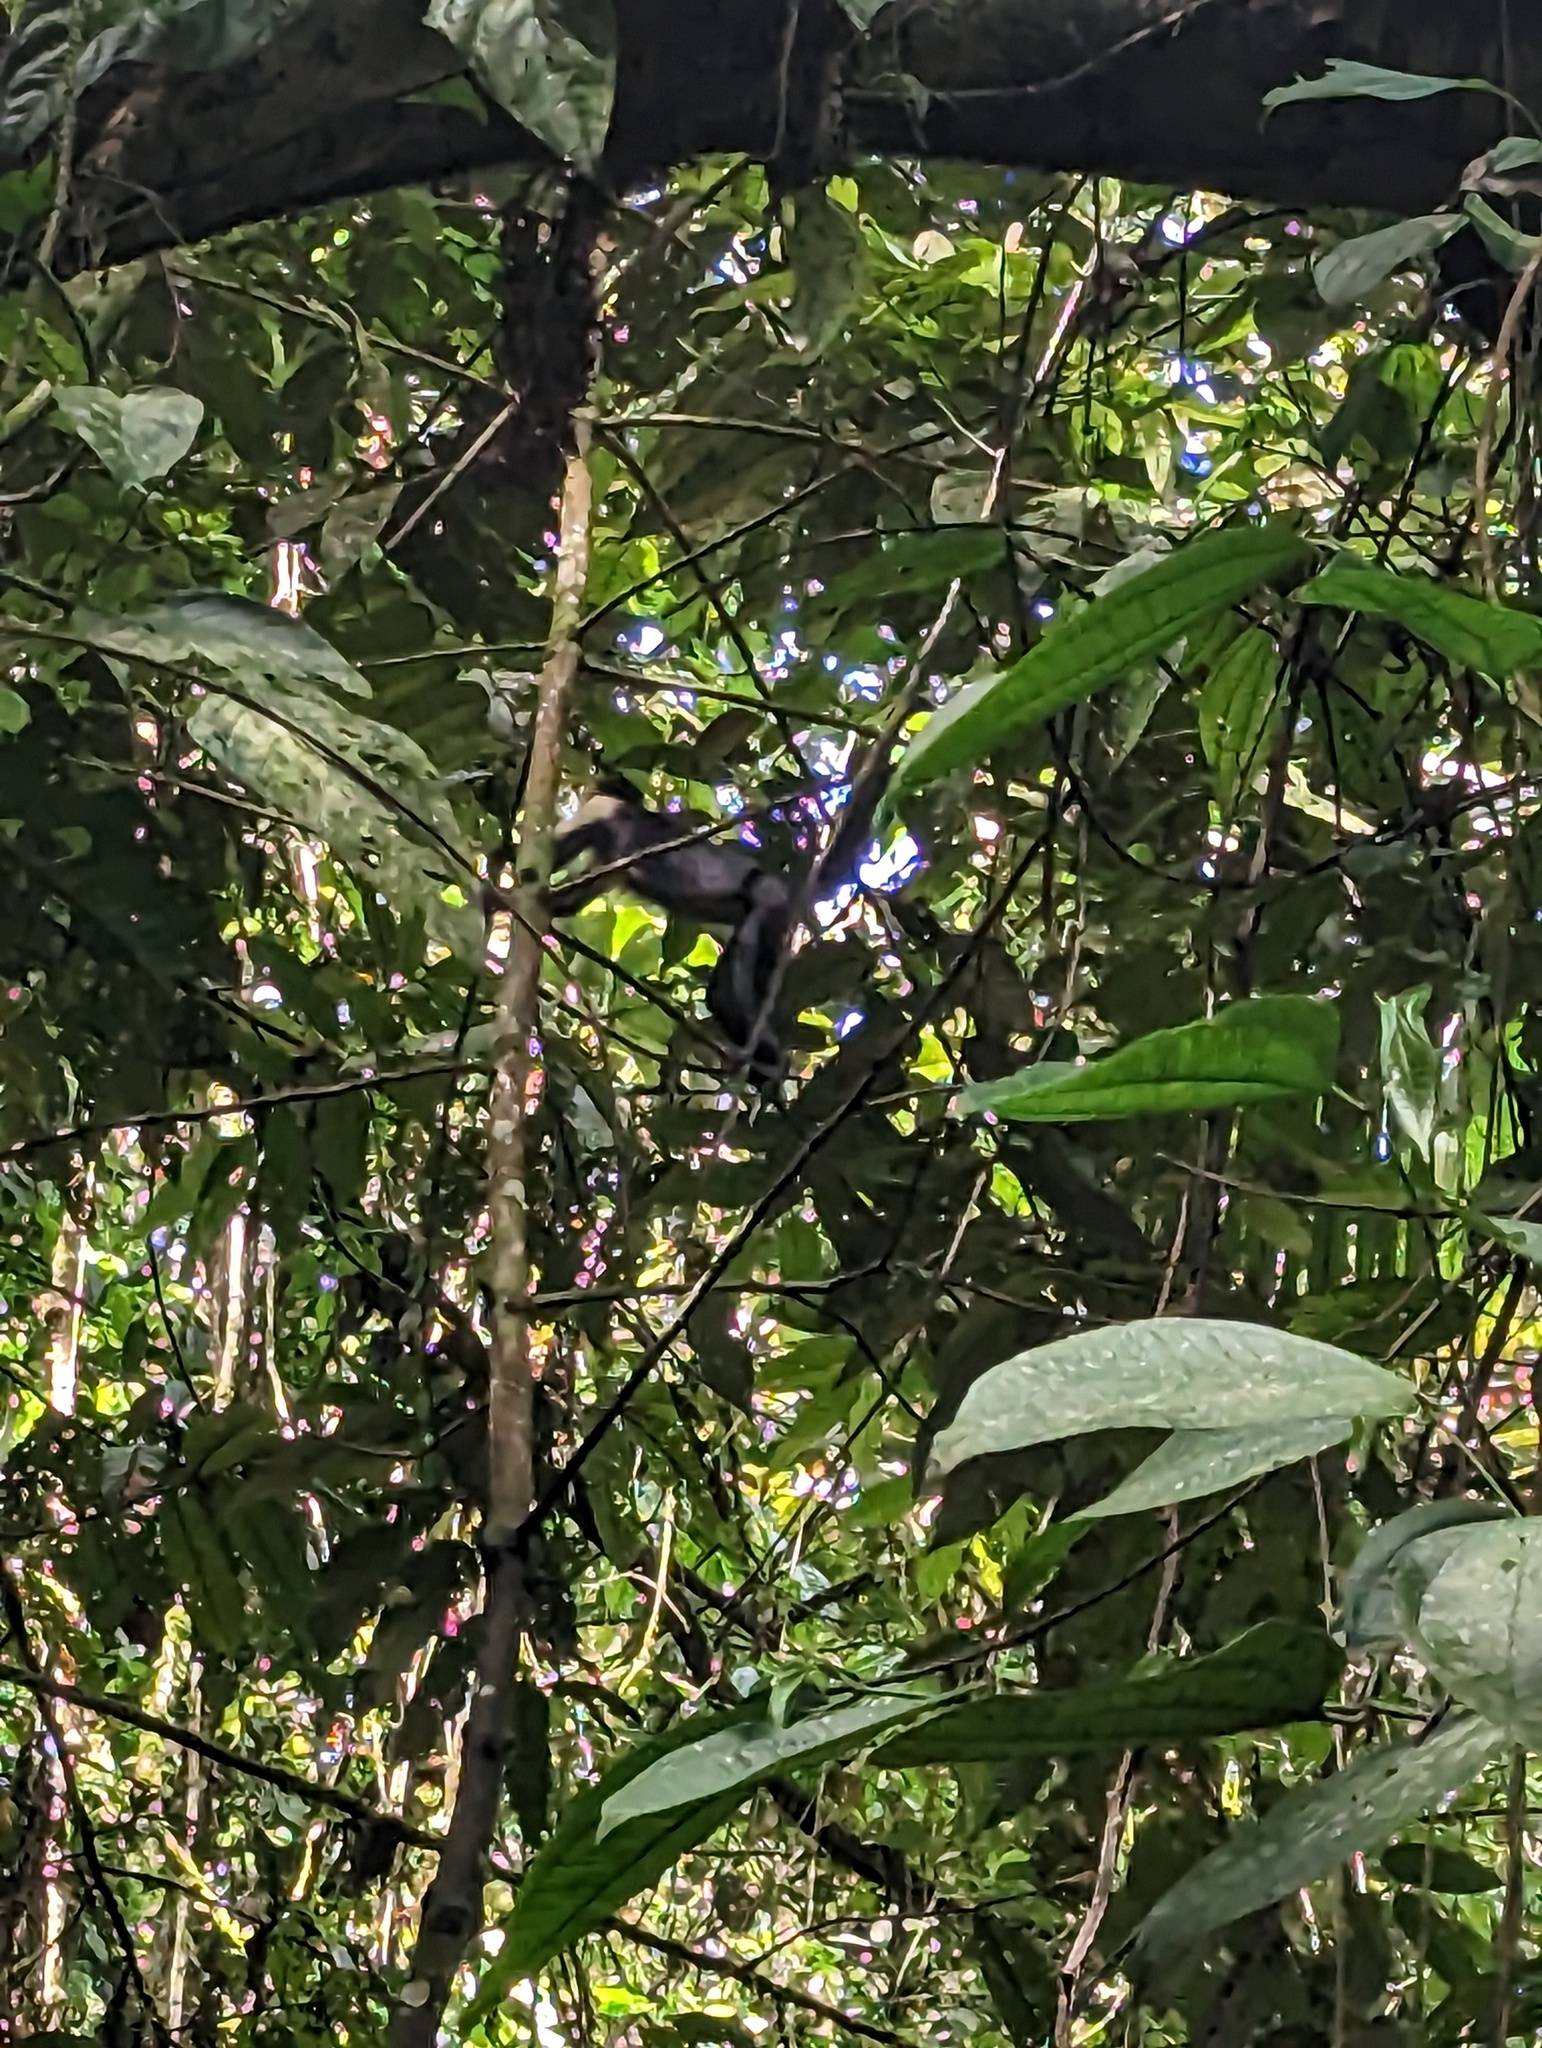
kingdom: Animalia
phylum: Chordata
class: Mammalia
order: Primates
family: Cebidae
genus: Cebus
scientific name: Cebus imitator
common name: Panamanian white-faced capuchin
